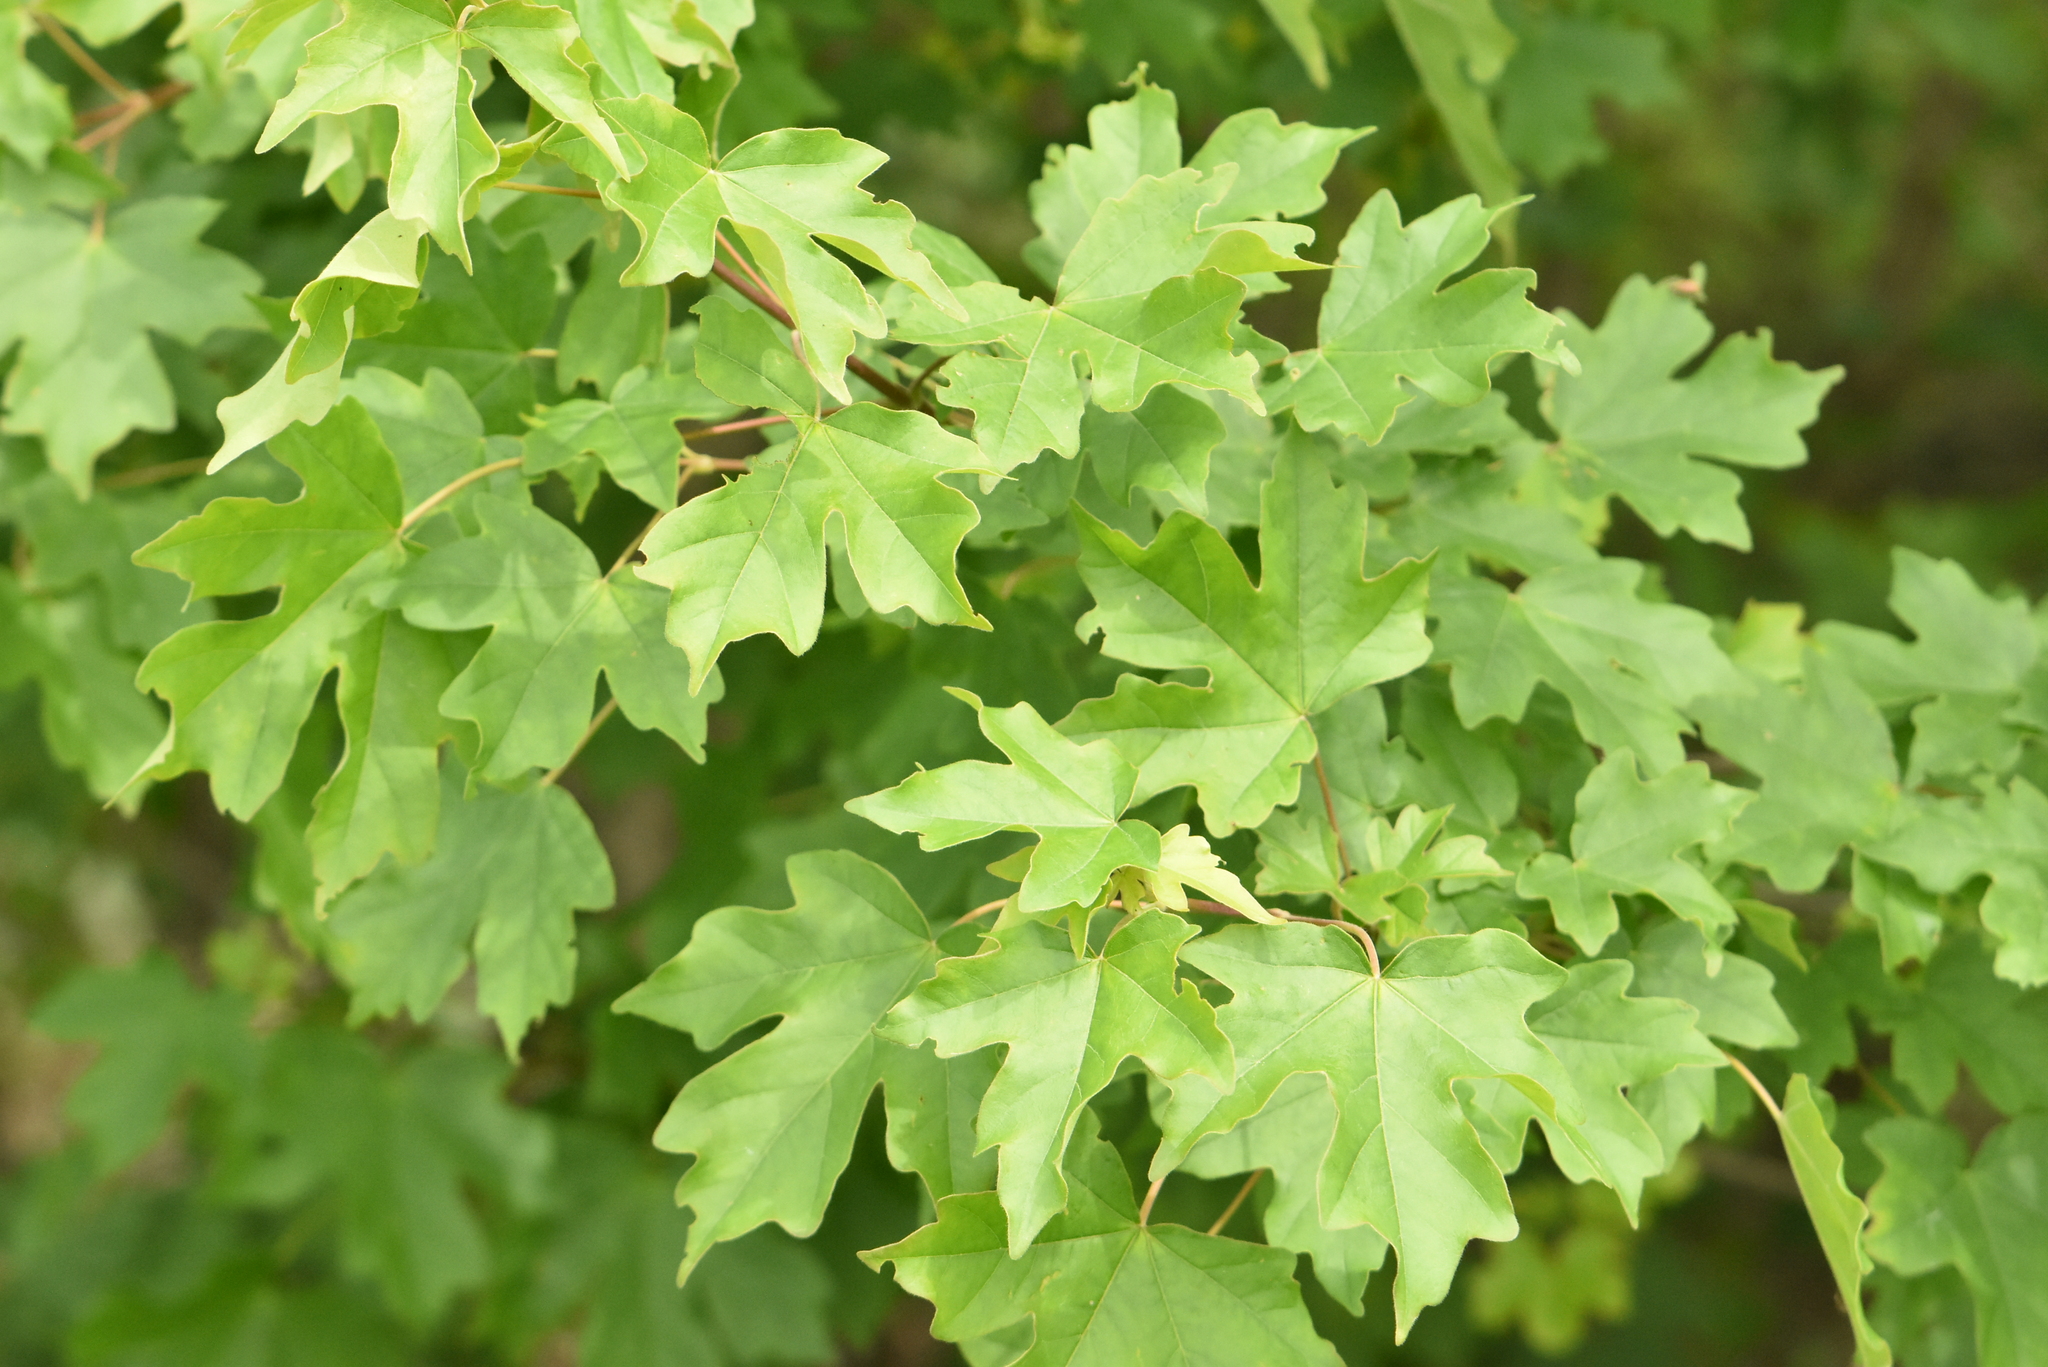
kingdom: Plantae
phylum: Tracheophyta
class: Magnoliopsida
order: Sapindales
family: Sapindaceae
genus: Acer
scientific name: Acer campestre
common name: Field maple
